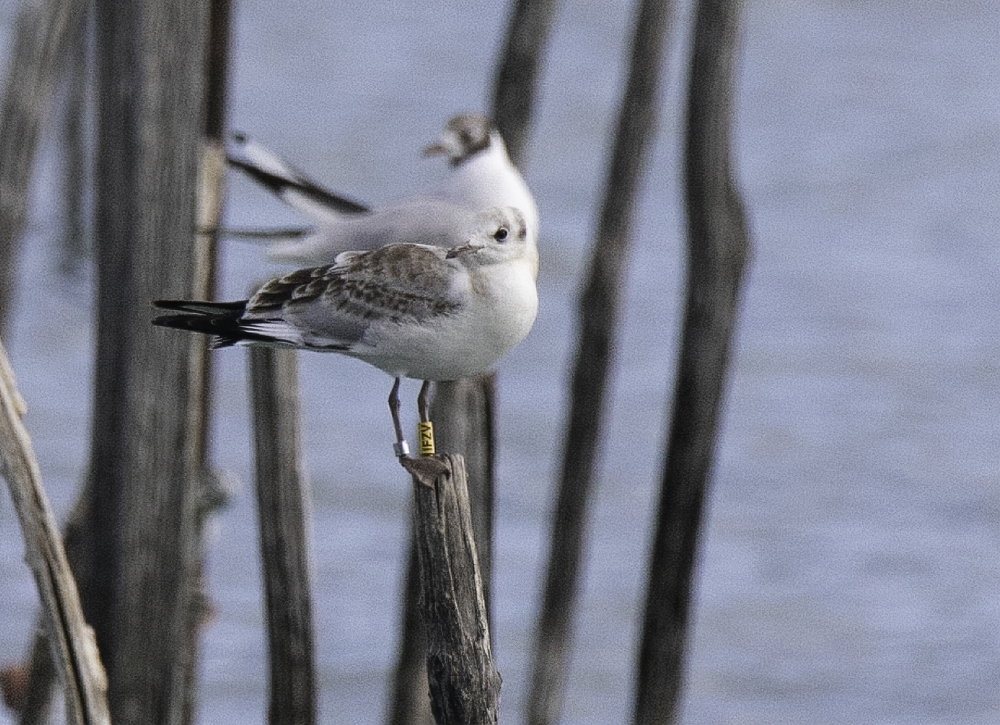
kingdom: Animalia
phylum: Chordata
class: Aves
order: Charadriiformes
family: Laridae
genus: Chroicocephalus
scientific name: Chroicocephalus ridibundus
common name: Black-headed gull
